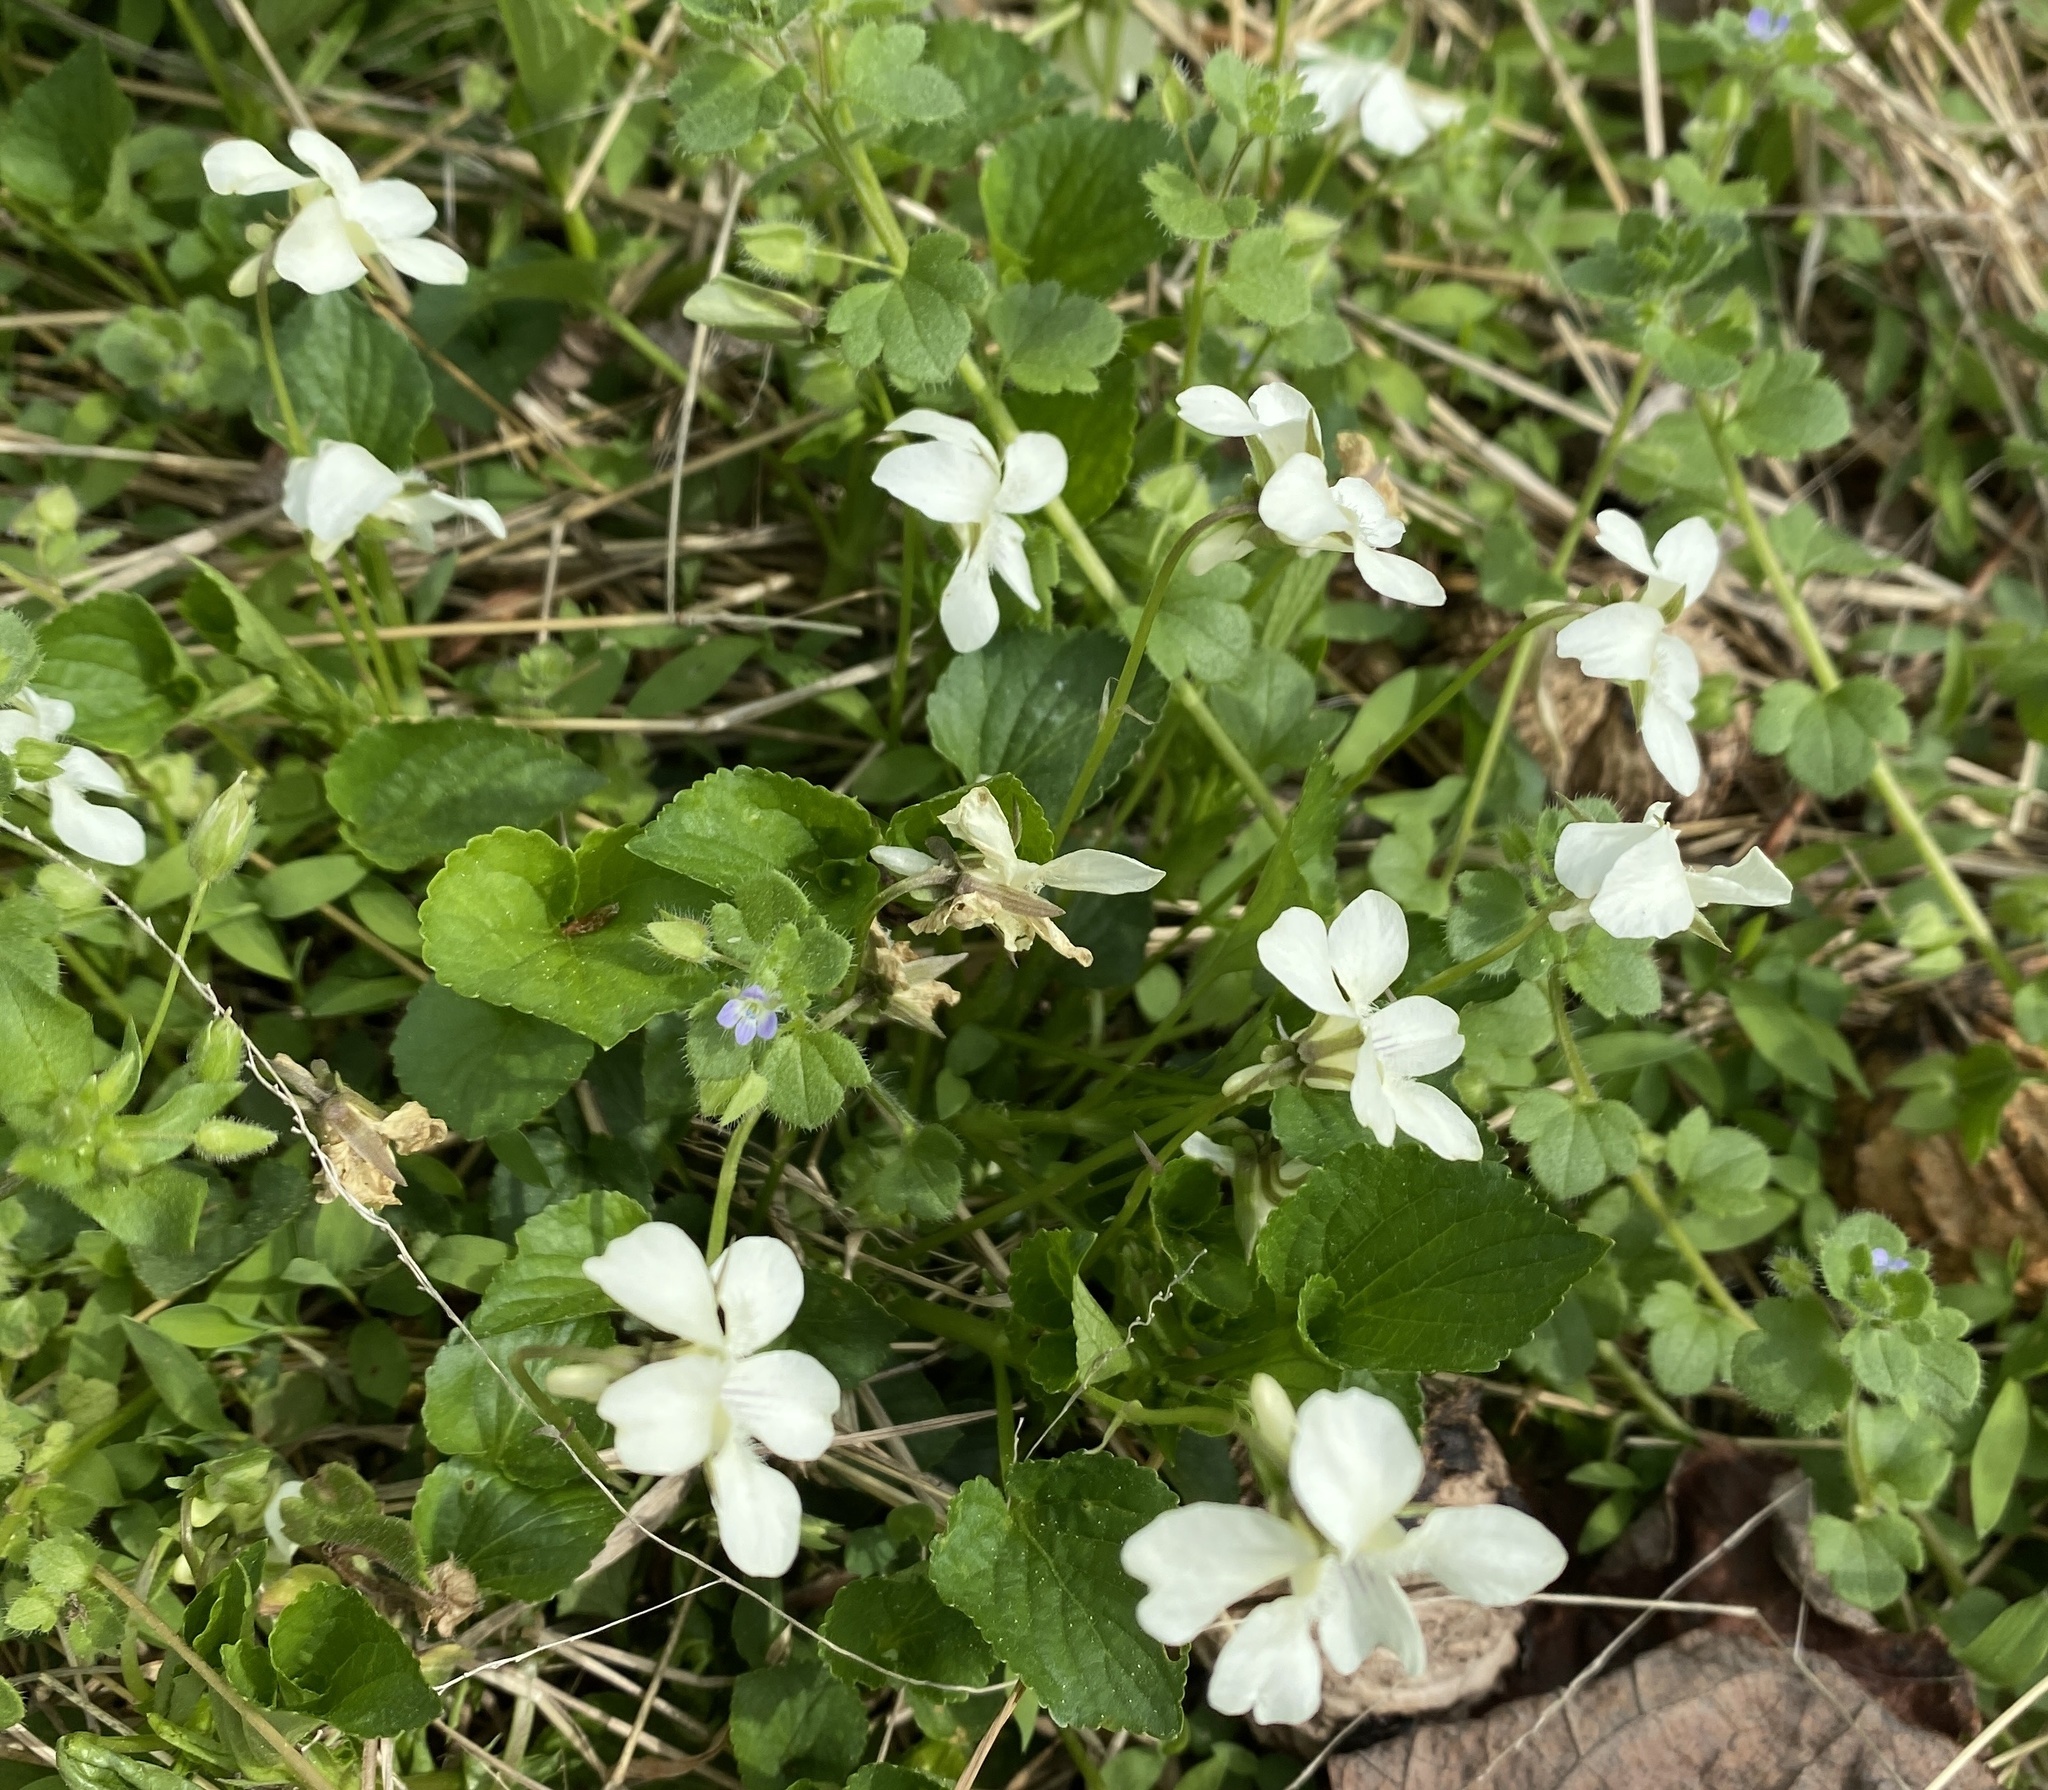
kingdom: Animalia
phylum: Arthropoda
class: Insecta
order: Hymenoptera
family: Apidae
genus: Xylocopa
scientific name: Xylocopa virginica
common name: Carpenter bee
